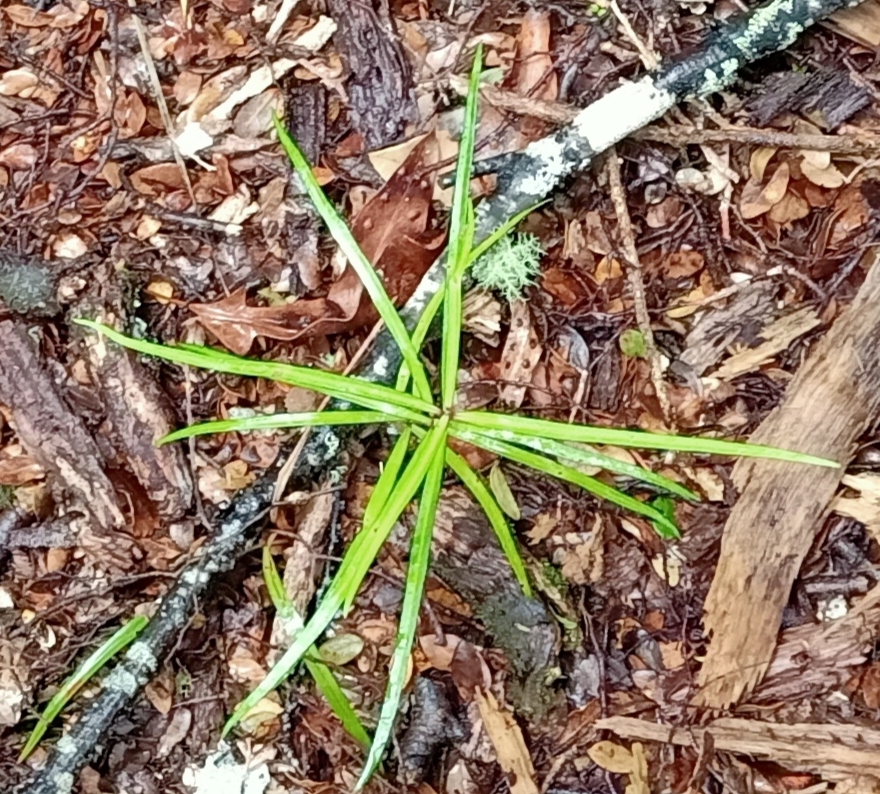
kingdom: Plantae
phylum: Tracheophyta
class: Magnoliopsida
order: Lamiales
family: Oleaceae
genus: Nestegis
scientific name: Nestegis lanceolata
